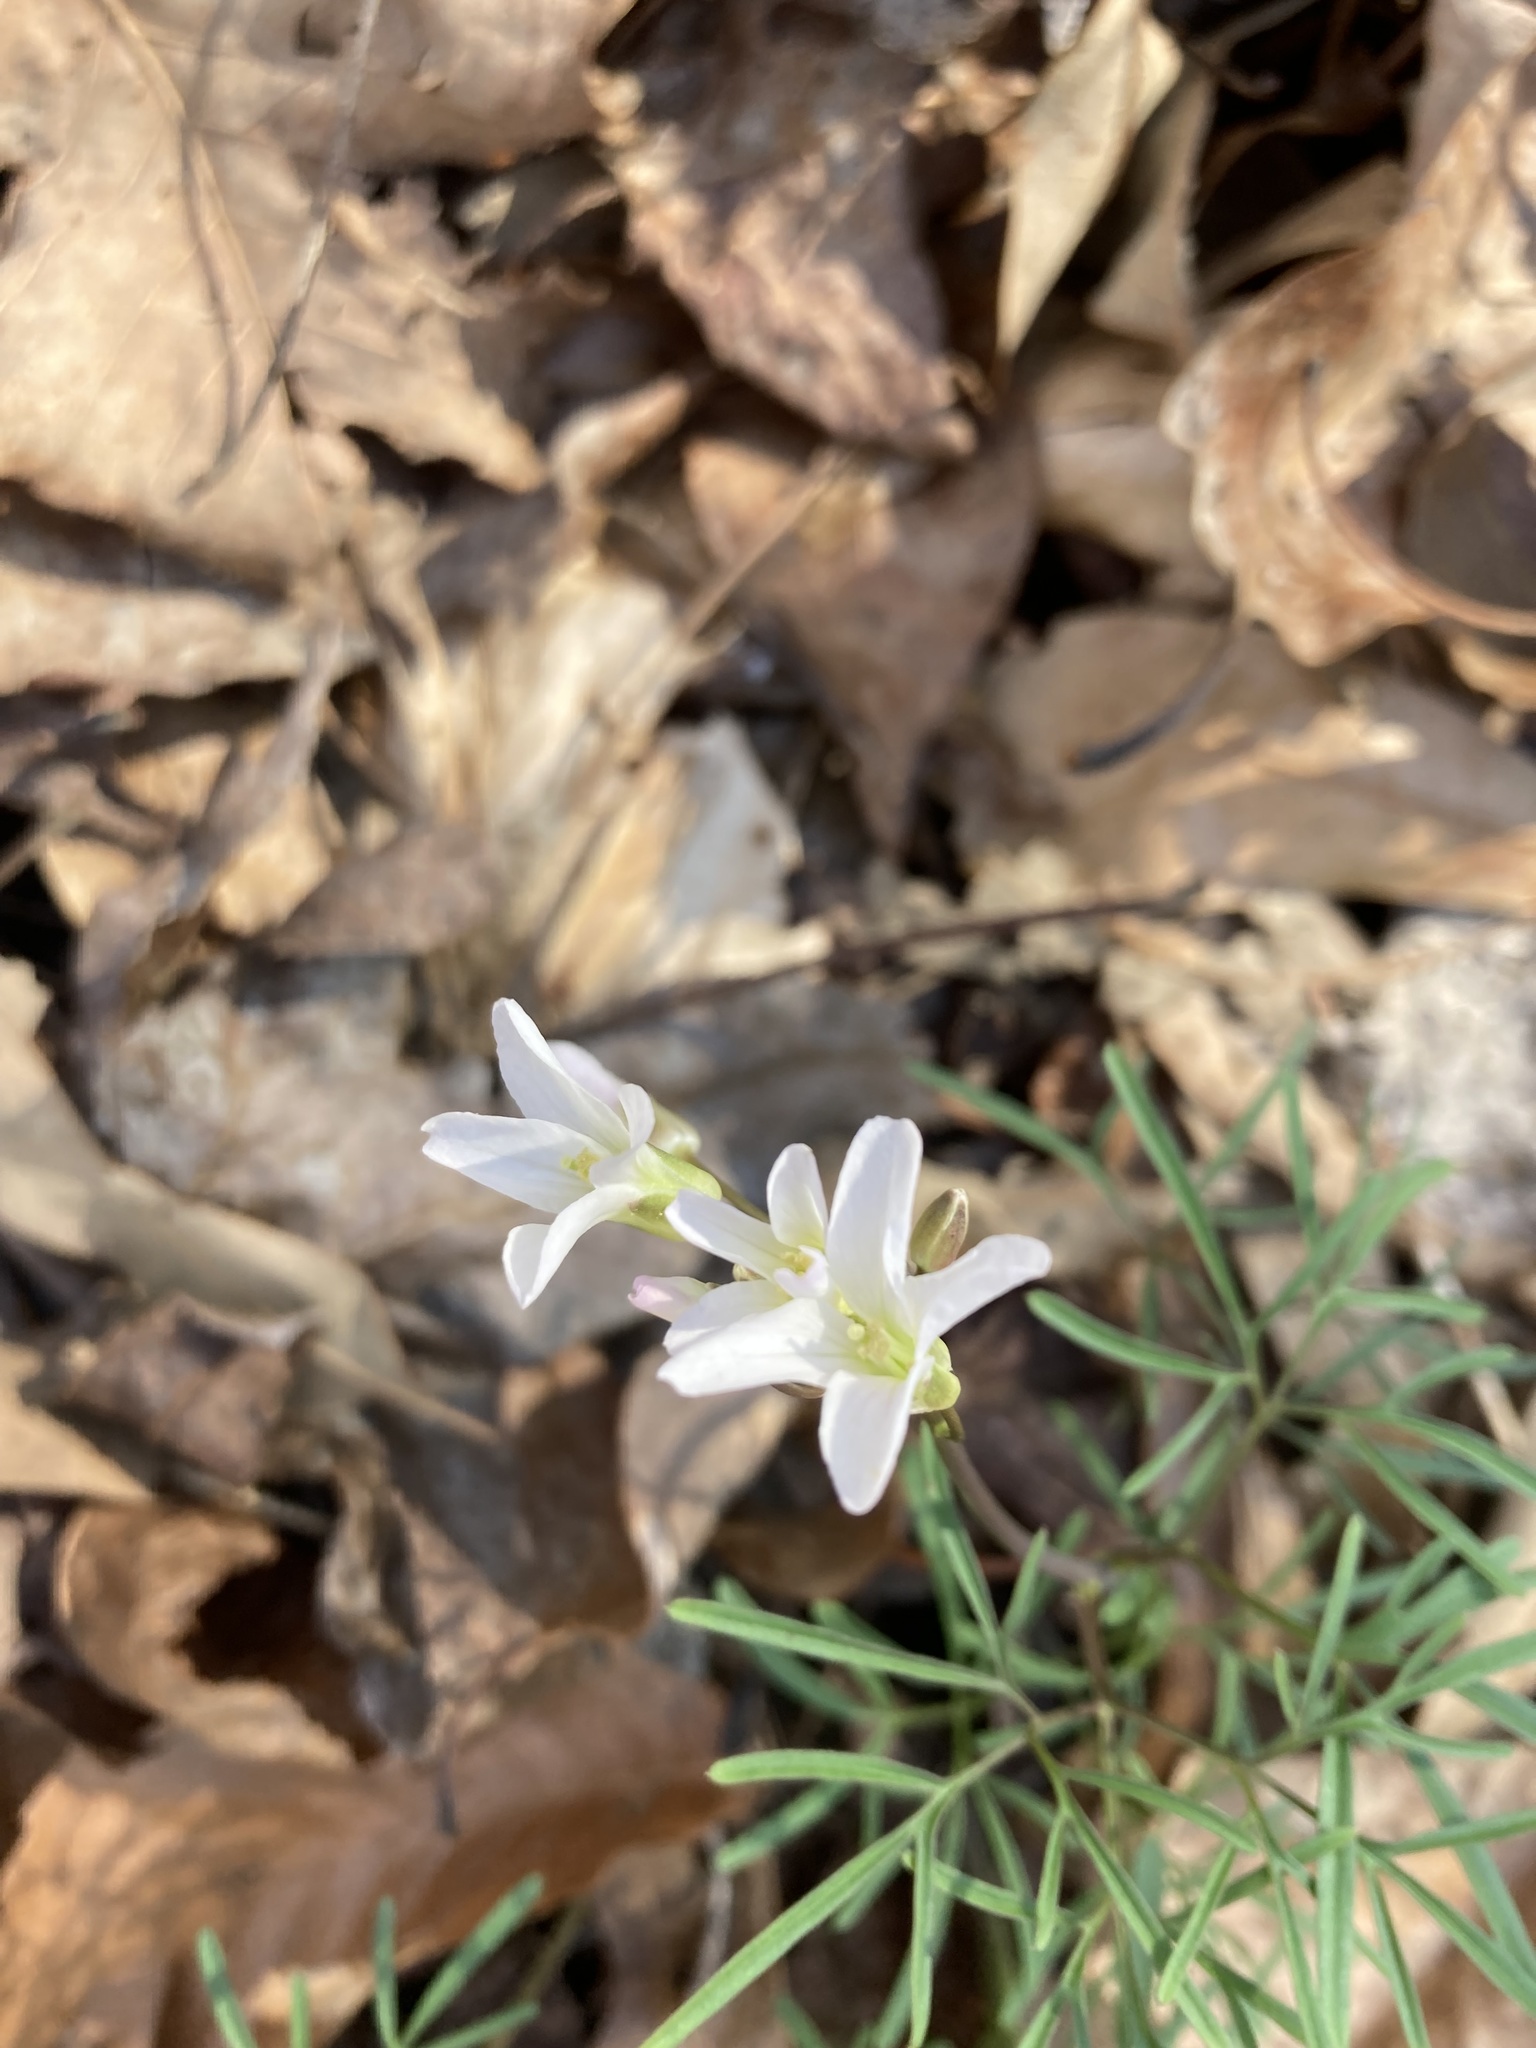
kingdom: Plantae
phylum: Tracheophyta
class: Magnoliopsida
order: Brassicales
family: Brassicaceae
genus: Cardamine
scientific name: Cardamine dissecta
